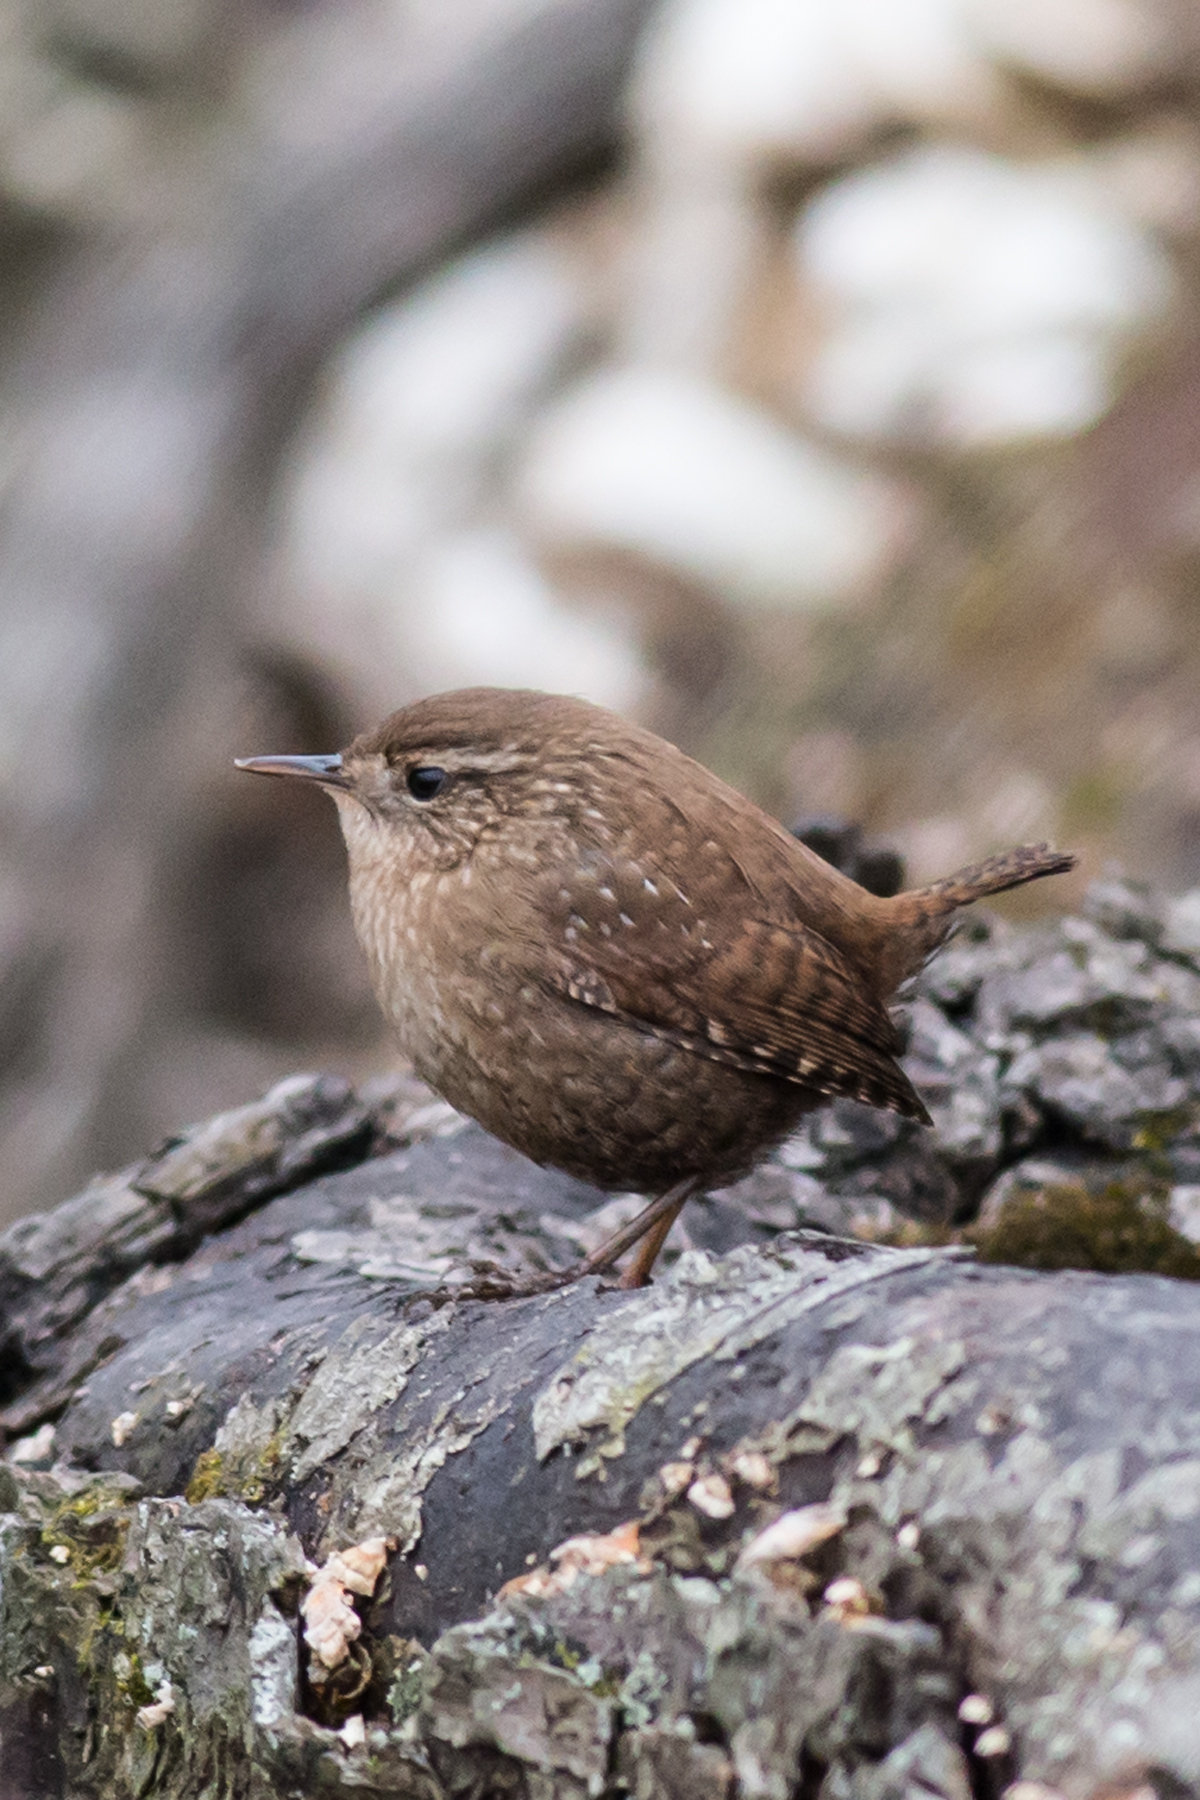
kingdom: Animalia
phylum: Chordata
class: Aves
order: Passeriformes
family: Troglodytidae
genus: Troglodytes
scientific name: Troglodytes hiemalis
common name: Winter wren
